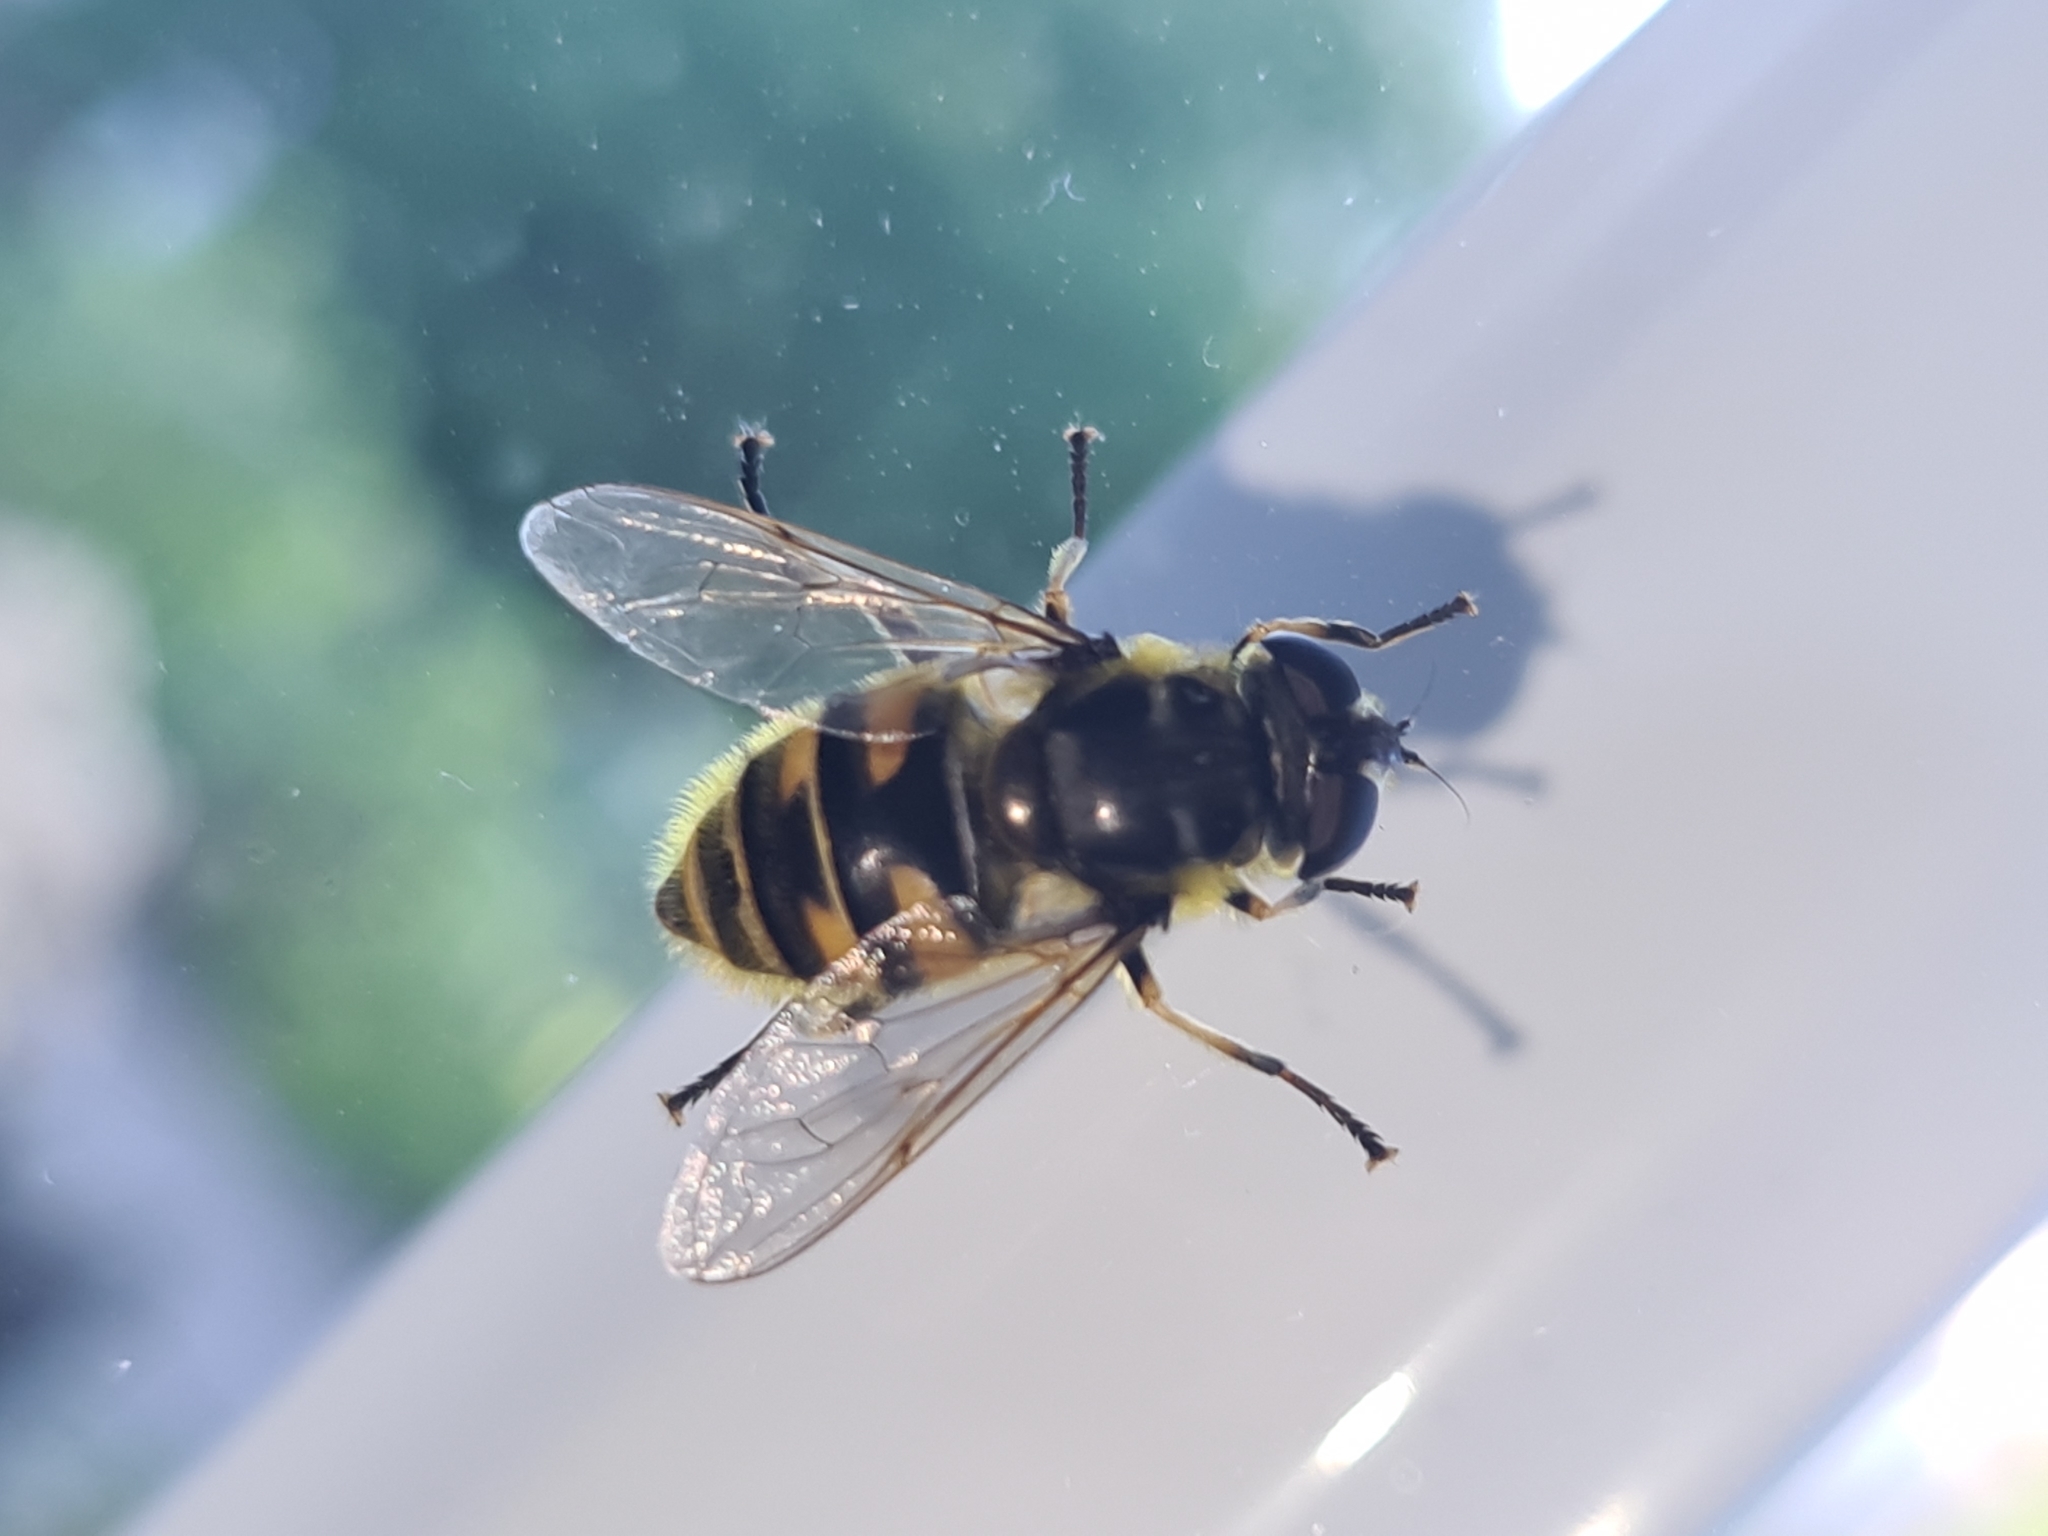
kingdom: Animalia
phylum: Arthropoda
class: Insecta
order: Diptera
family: Syrphidae
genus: Myathropa
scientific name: Myathropa florea
